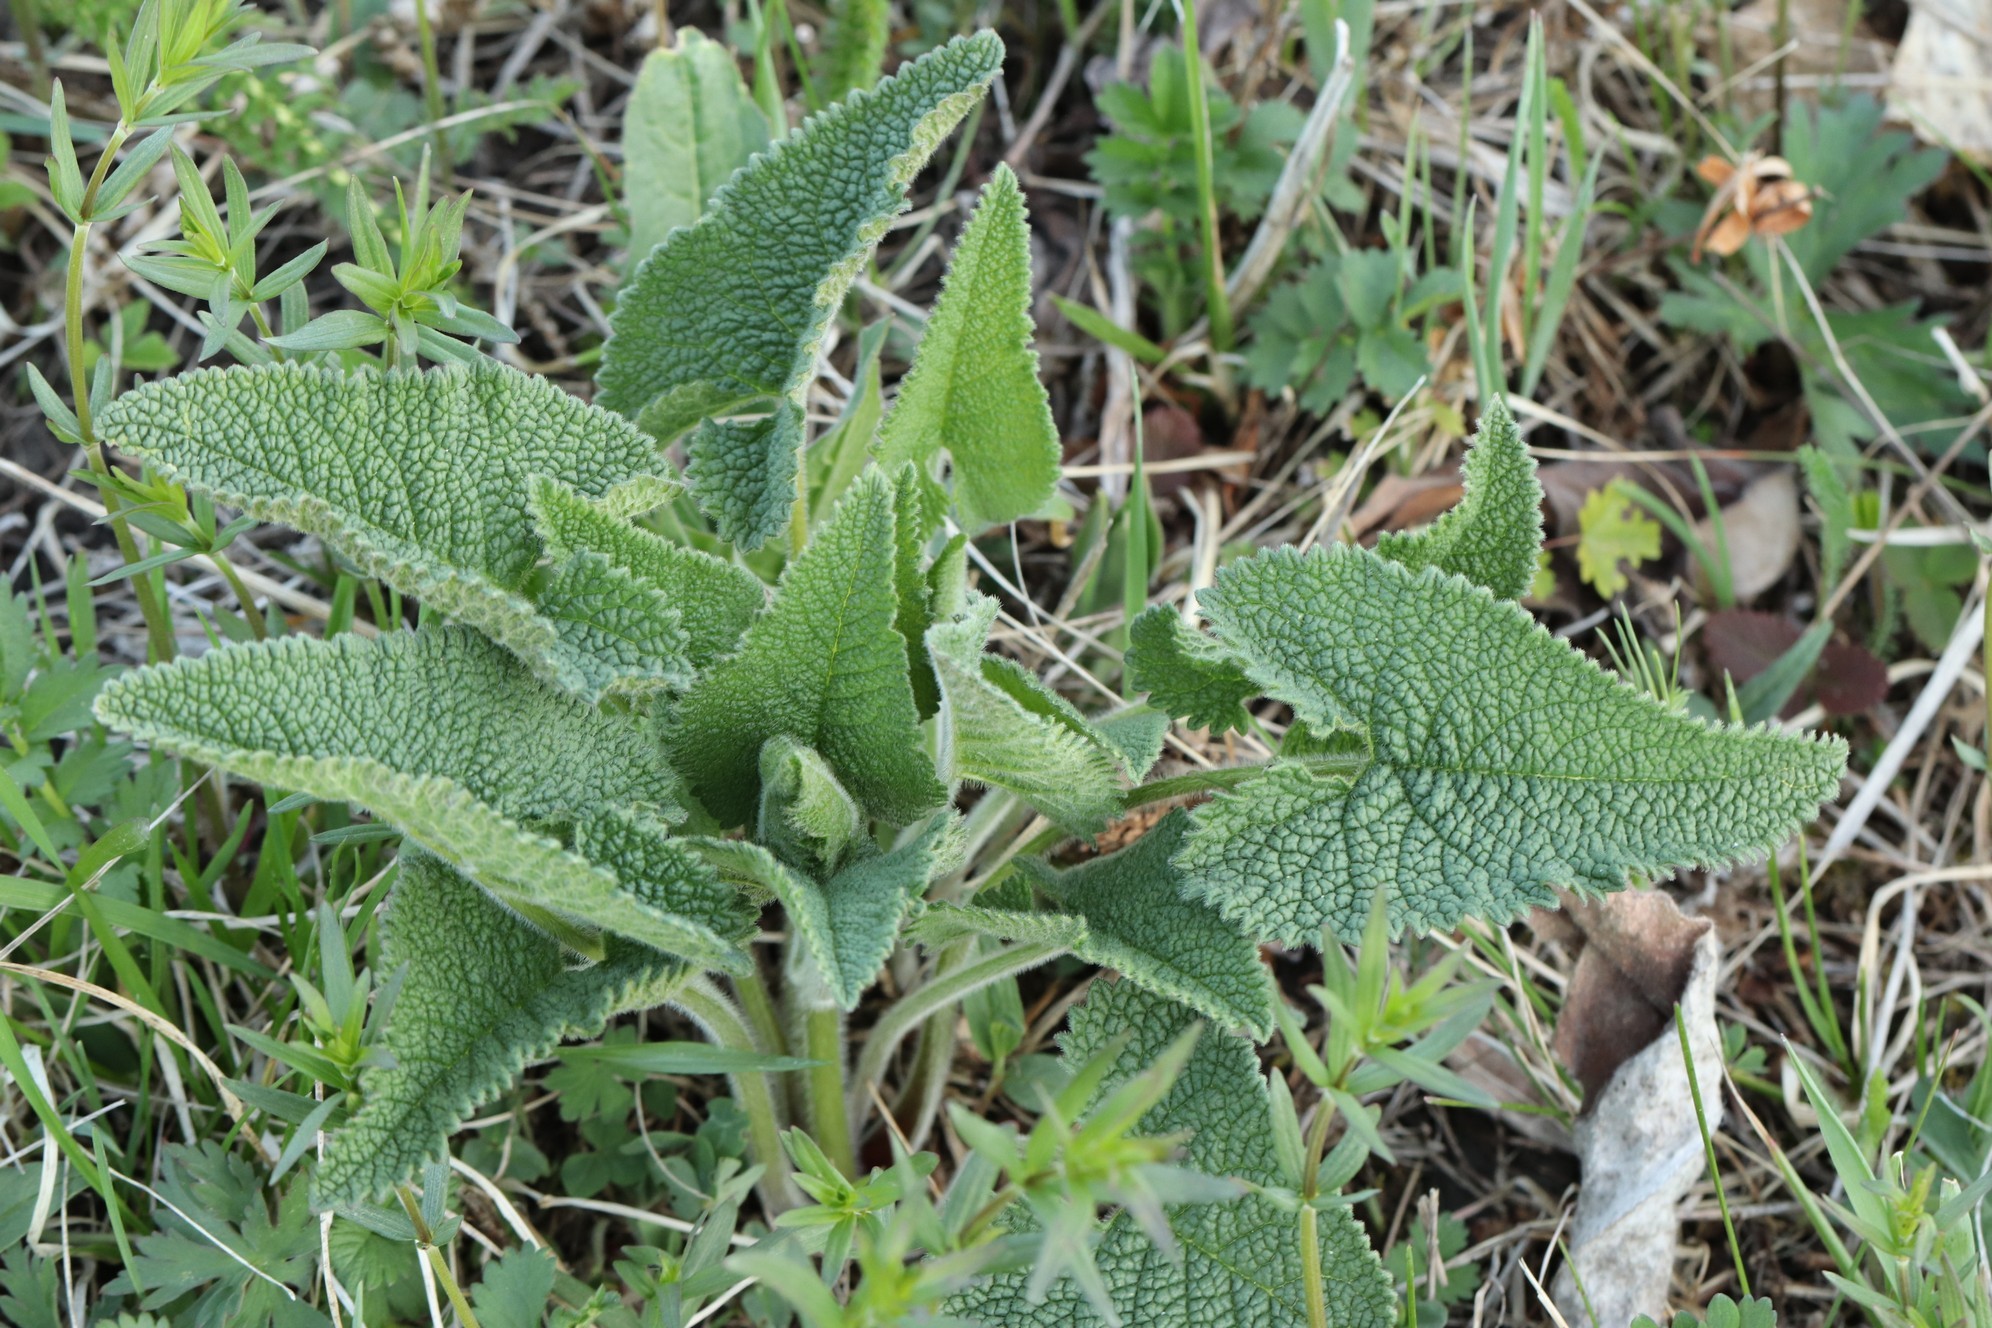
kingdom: Plantae
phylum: Tracheophyta
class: Magnoliopsida
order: Lamiales
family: Lamiaceae
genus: Phlomoides
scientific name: Phlomoides tuberosa
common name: Tuberous jerusalem sage
